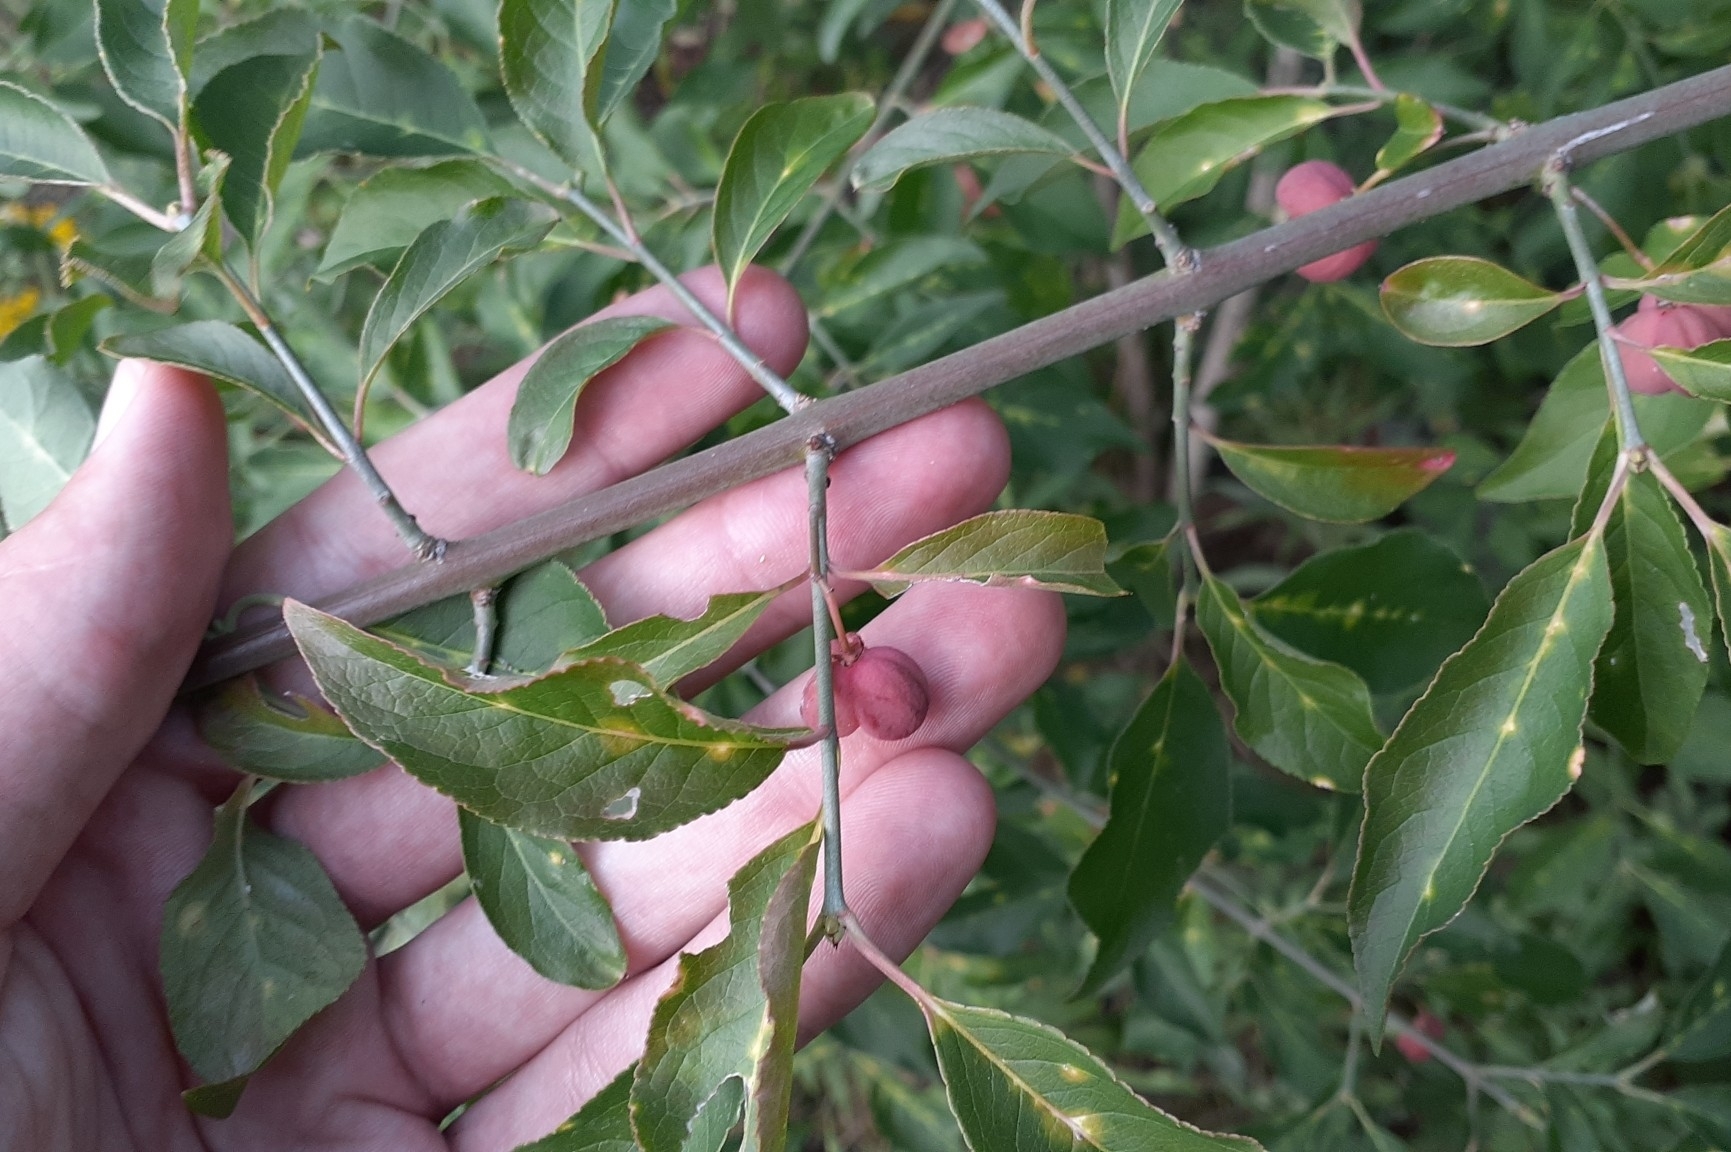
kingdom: Plantae
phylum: Tracheophyta
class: Magnoliopsida
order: Celastrales
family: Celastraceae
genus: Euonymus
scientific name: Euonymus europaeus
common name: Spindle
